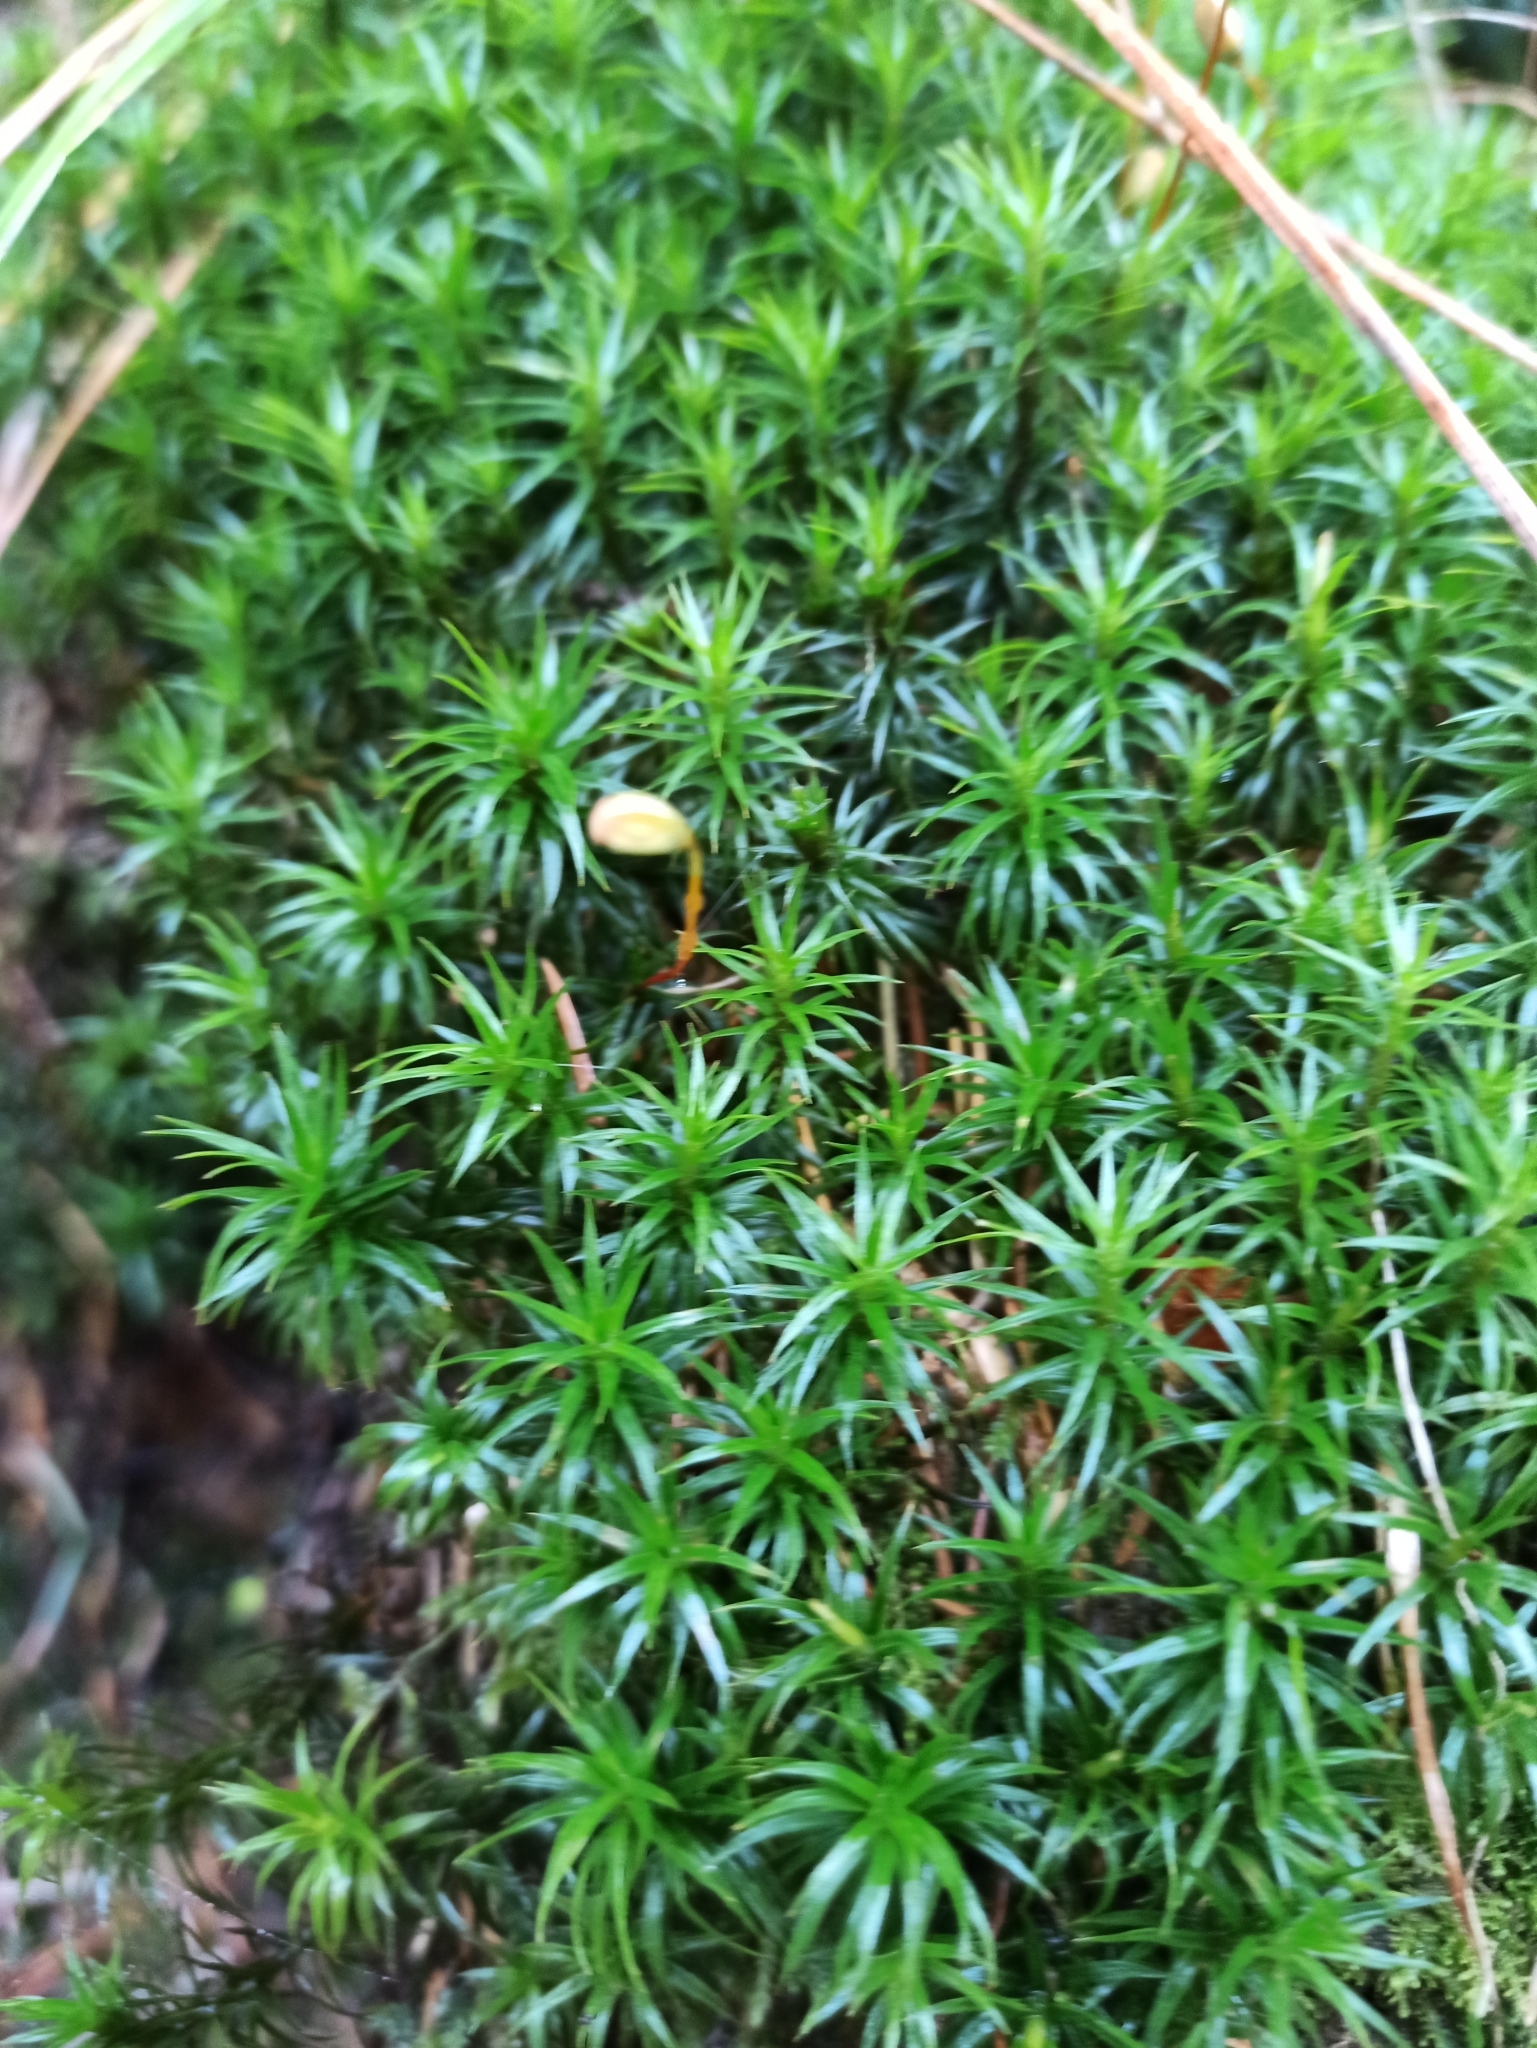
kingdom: Plantae
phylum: Bryophyta
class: Polytrichopsida
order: Polytrichales
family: Polytrichaceae
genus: Polytrichum
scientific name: Polytrichum formosum
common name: Bank haircap moss
